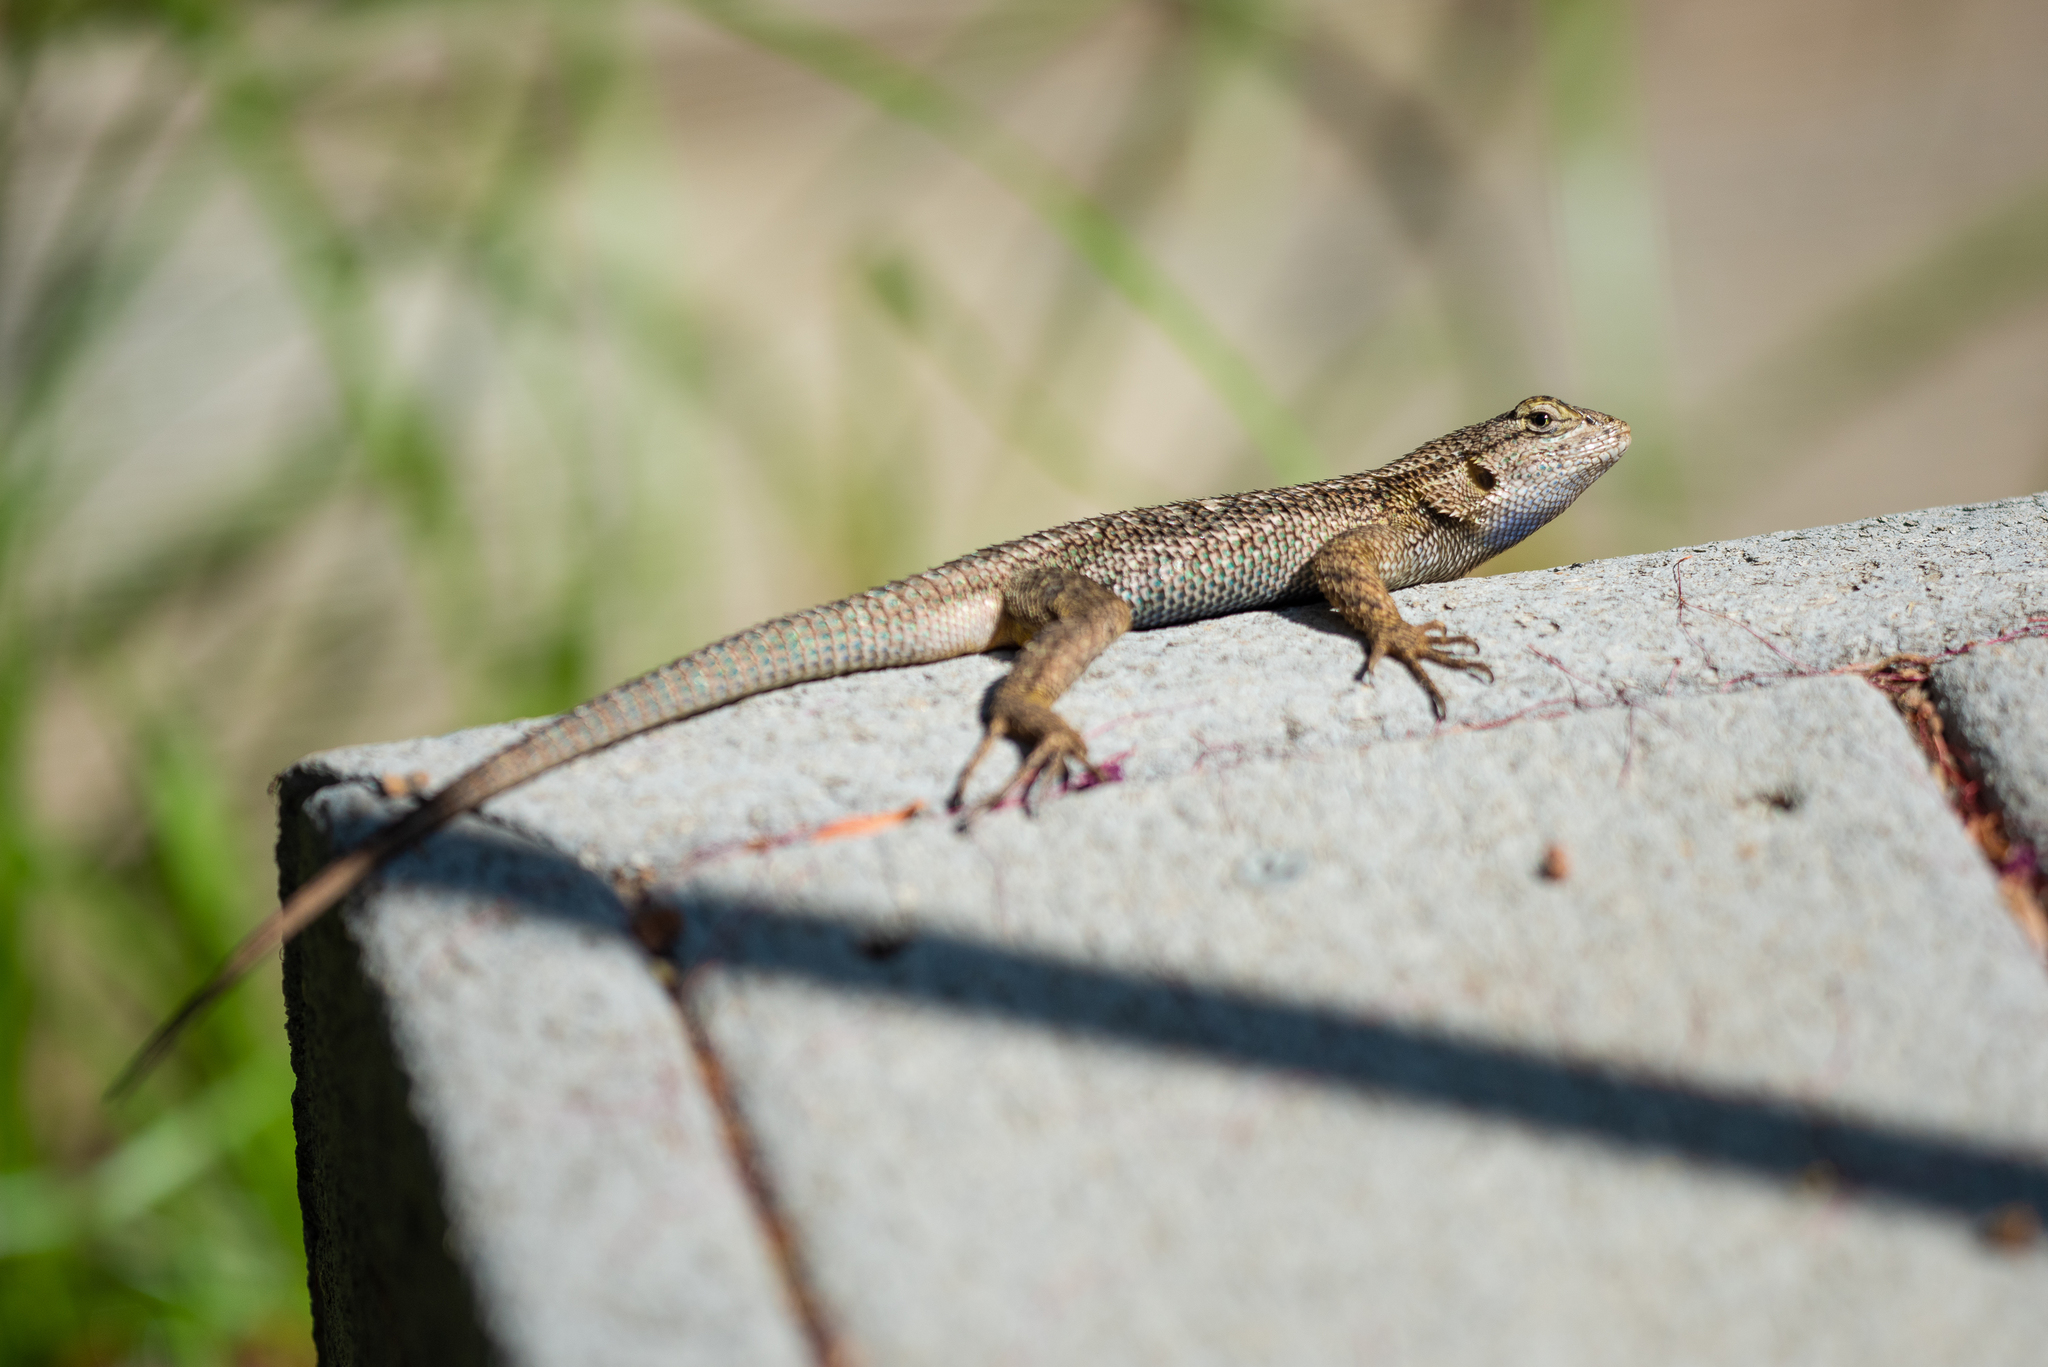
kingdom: Animalia
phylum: Chordata
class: Squamata
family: Phrynosomatidae
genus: Sceloporus
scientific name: Sceloporus occidentalis
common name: Western fence lizard
